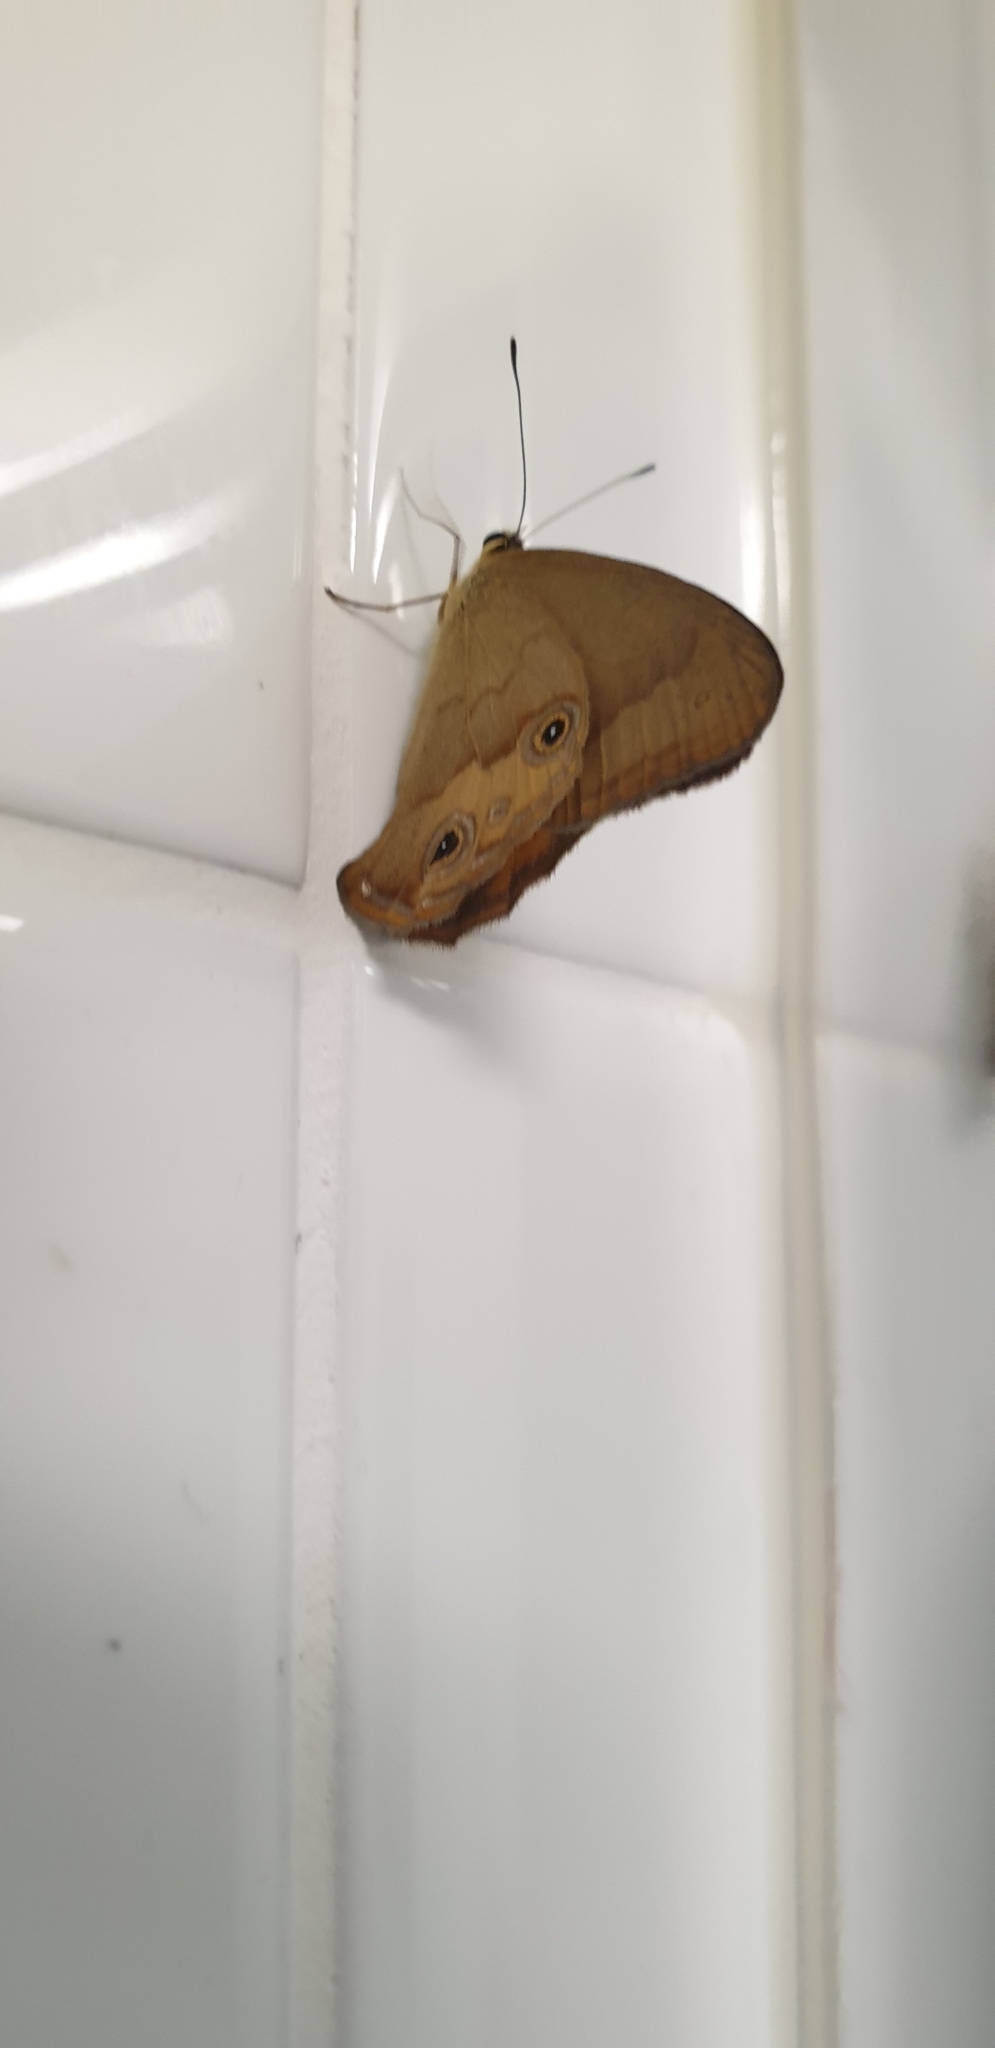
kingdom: Animalia
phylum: Arthropoda
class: Insecta
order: Lepidoptera
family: Nymphalidae
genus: Hypocysta
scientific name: Hypocysta metirius
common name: Brown ringlet
